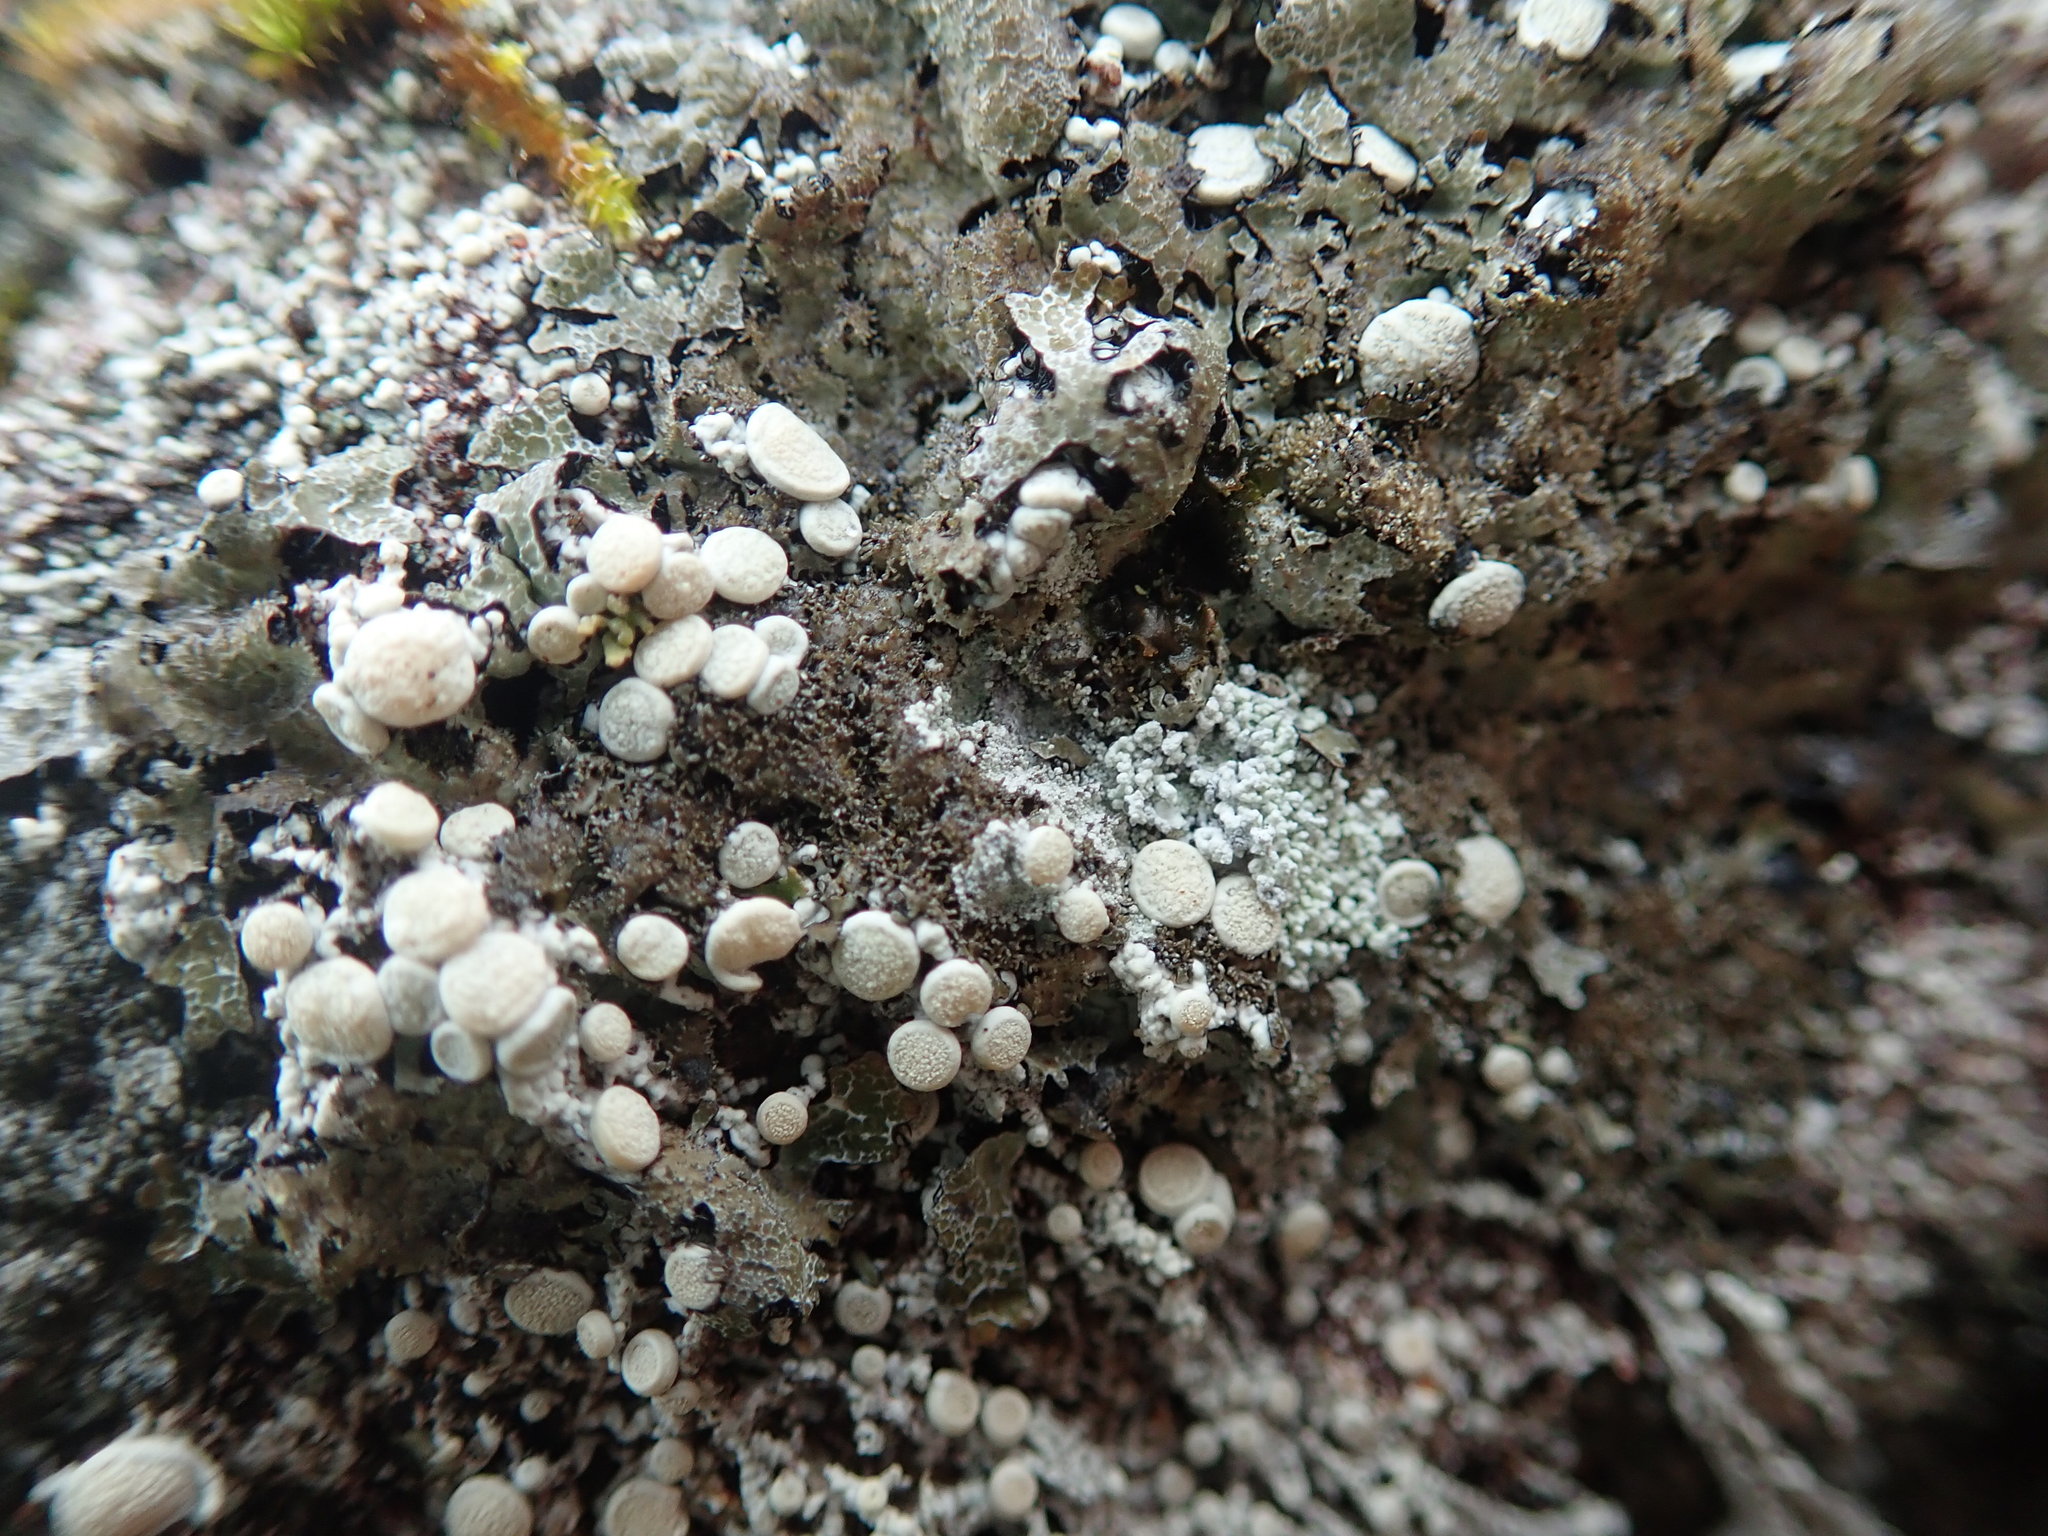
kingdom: Fungi
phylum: Ascomycota
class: Lecanoromycetes
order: Pertusariales
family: Ochrolechiaceae
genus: Ochrolechia
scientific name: Ochrolechia upsaliensis
